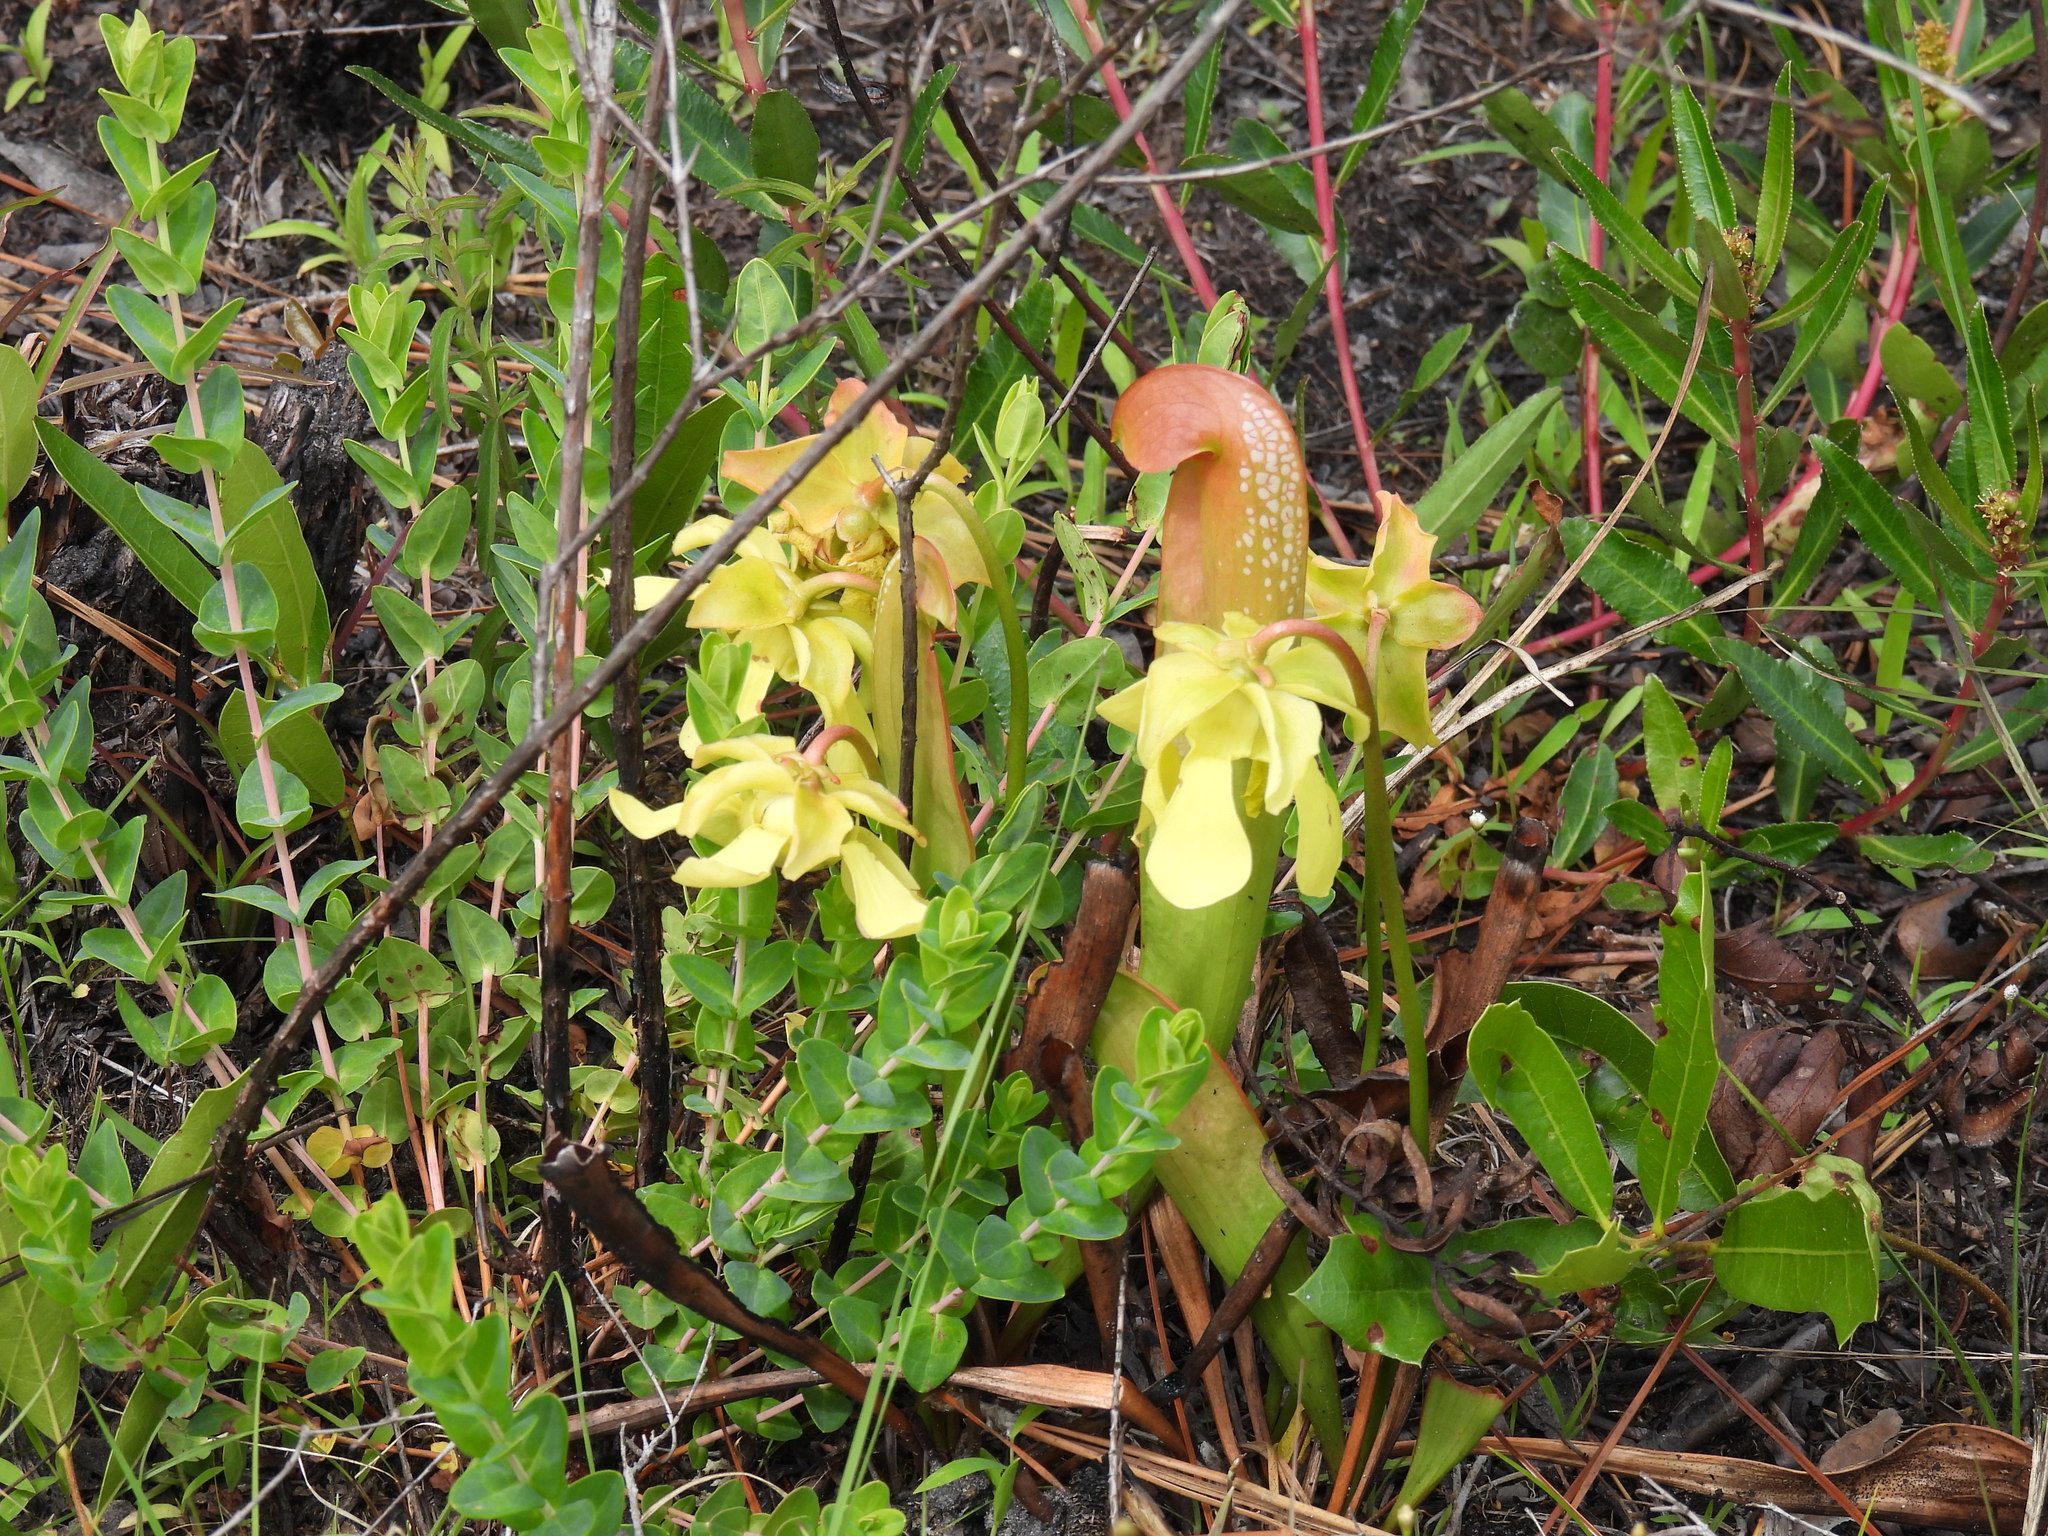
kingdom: Plantae
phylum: Tracheophyta
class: Magnoliopsida
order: Ericales
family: Sarraceniaceae
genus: Sarracenia
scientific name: Sarracenia minor
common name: Rainhat-trumpet
